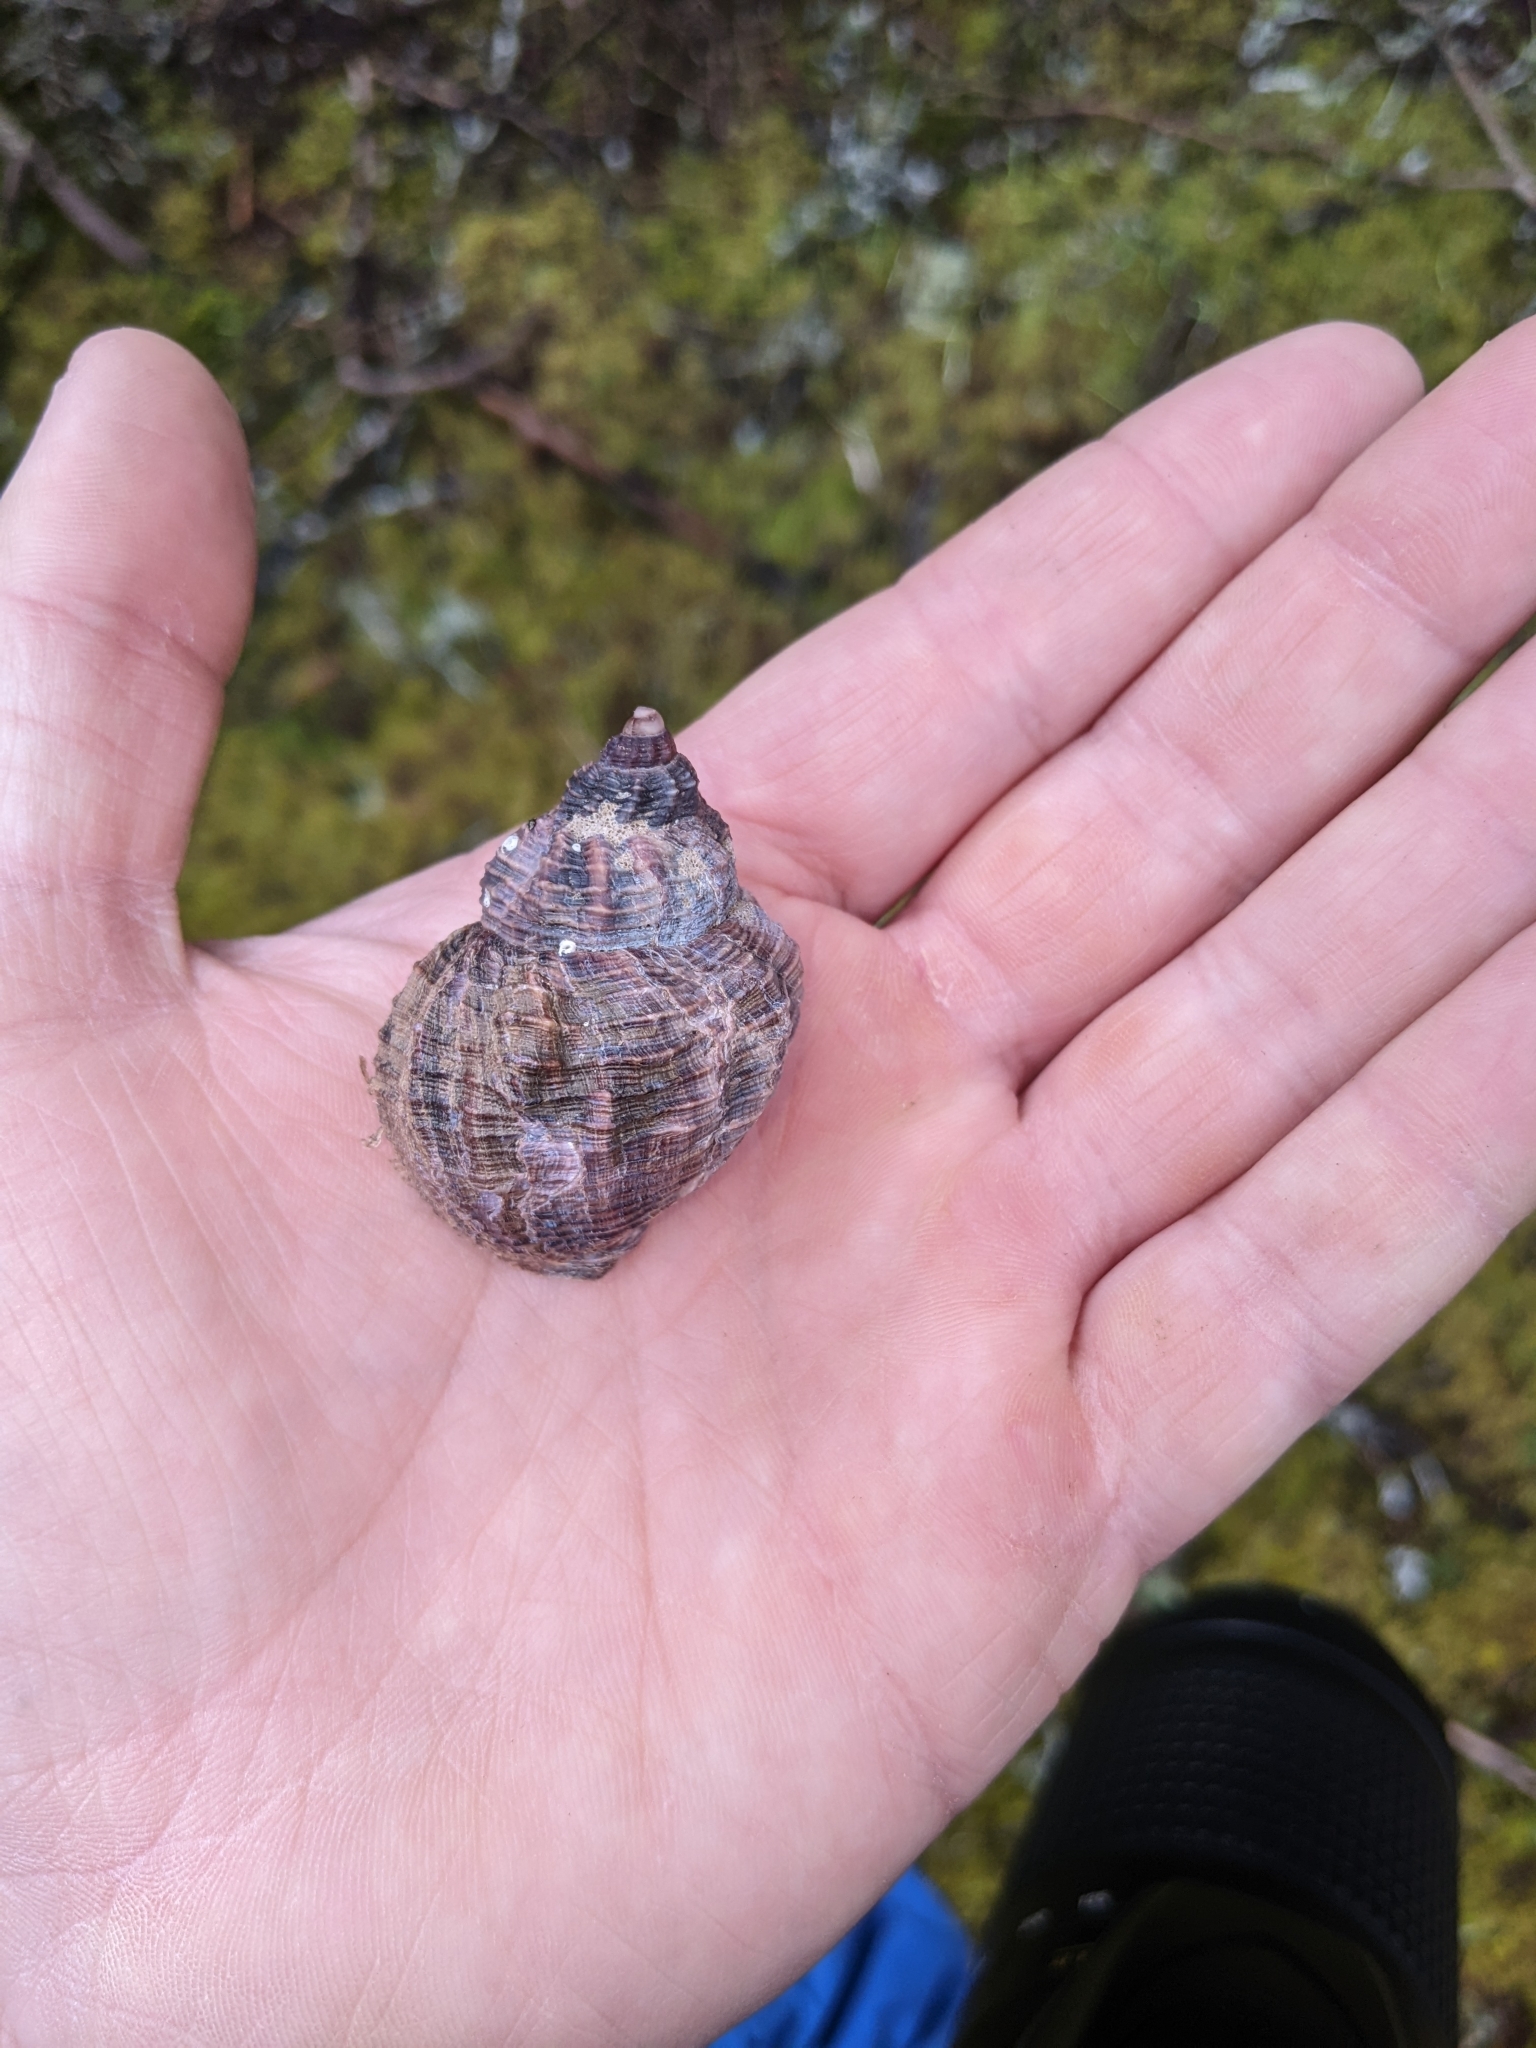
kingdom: Animalia
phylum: Mollusca
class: Gastropoda
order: Neogastropoda
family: Buccinidae
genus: Buccinum
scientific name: Buccinum undatum
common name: Common whelk
